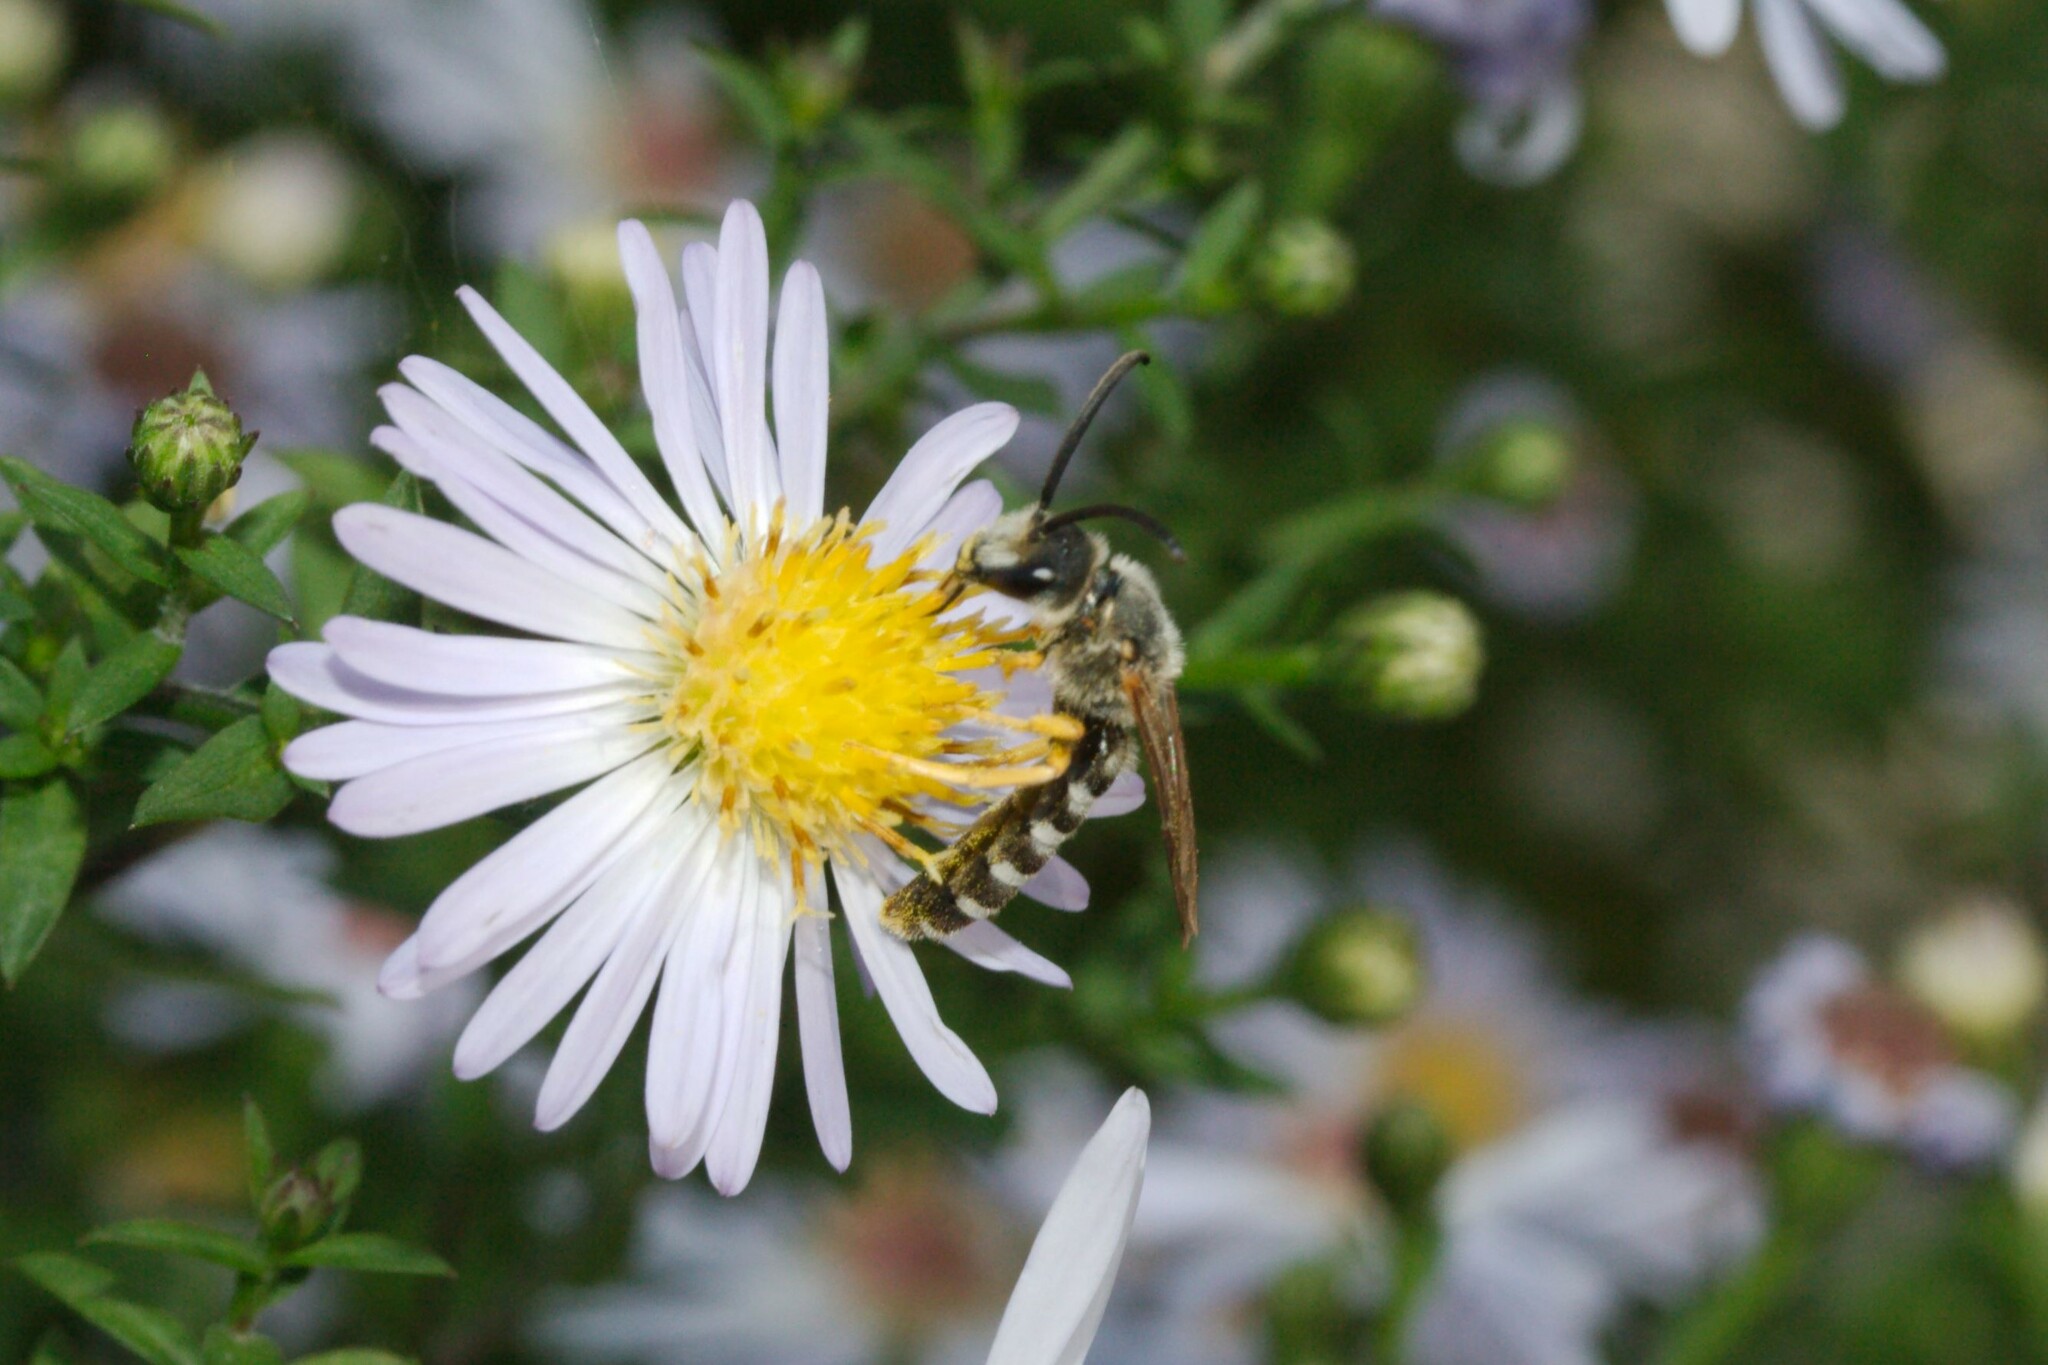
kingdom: Animalia
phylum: Arthropoda
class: Insecta
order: Hymenoptera
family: Halictidae
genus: Halictus
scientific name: Halictus scabiosae
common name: Great banded furrow bee
